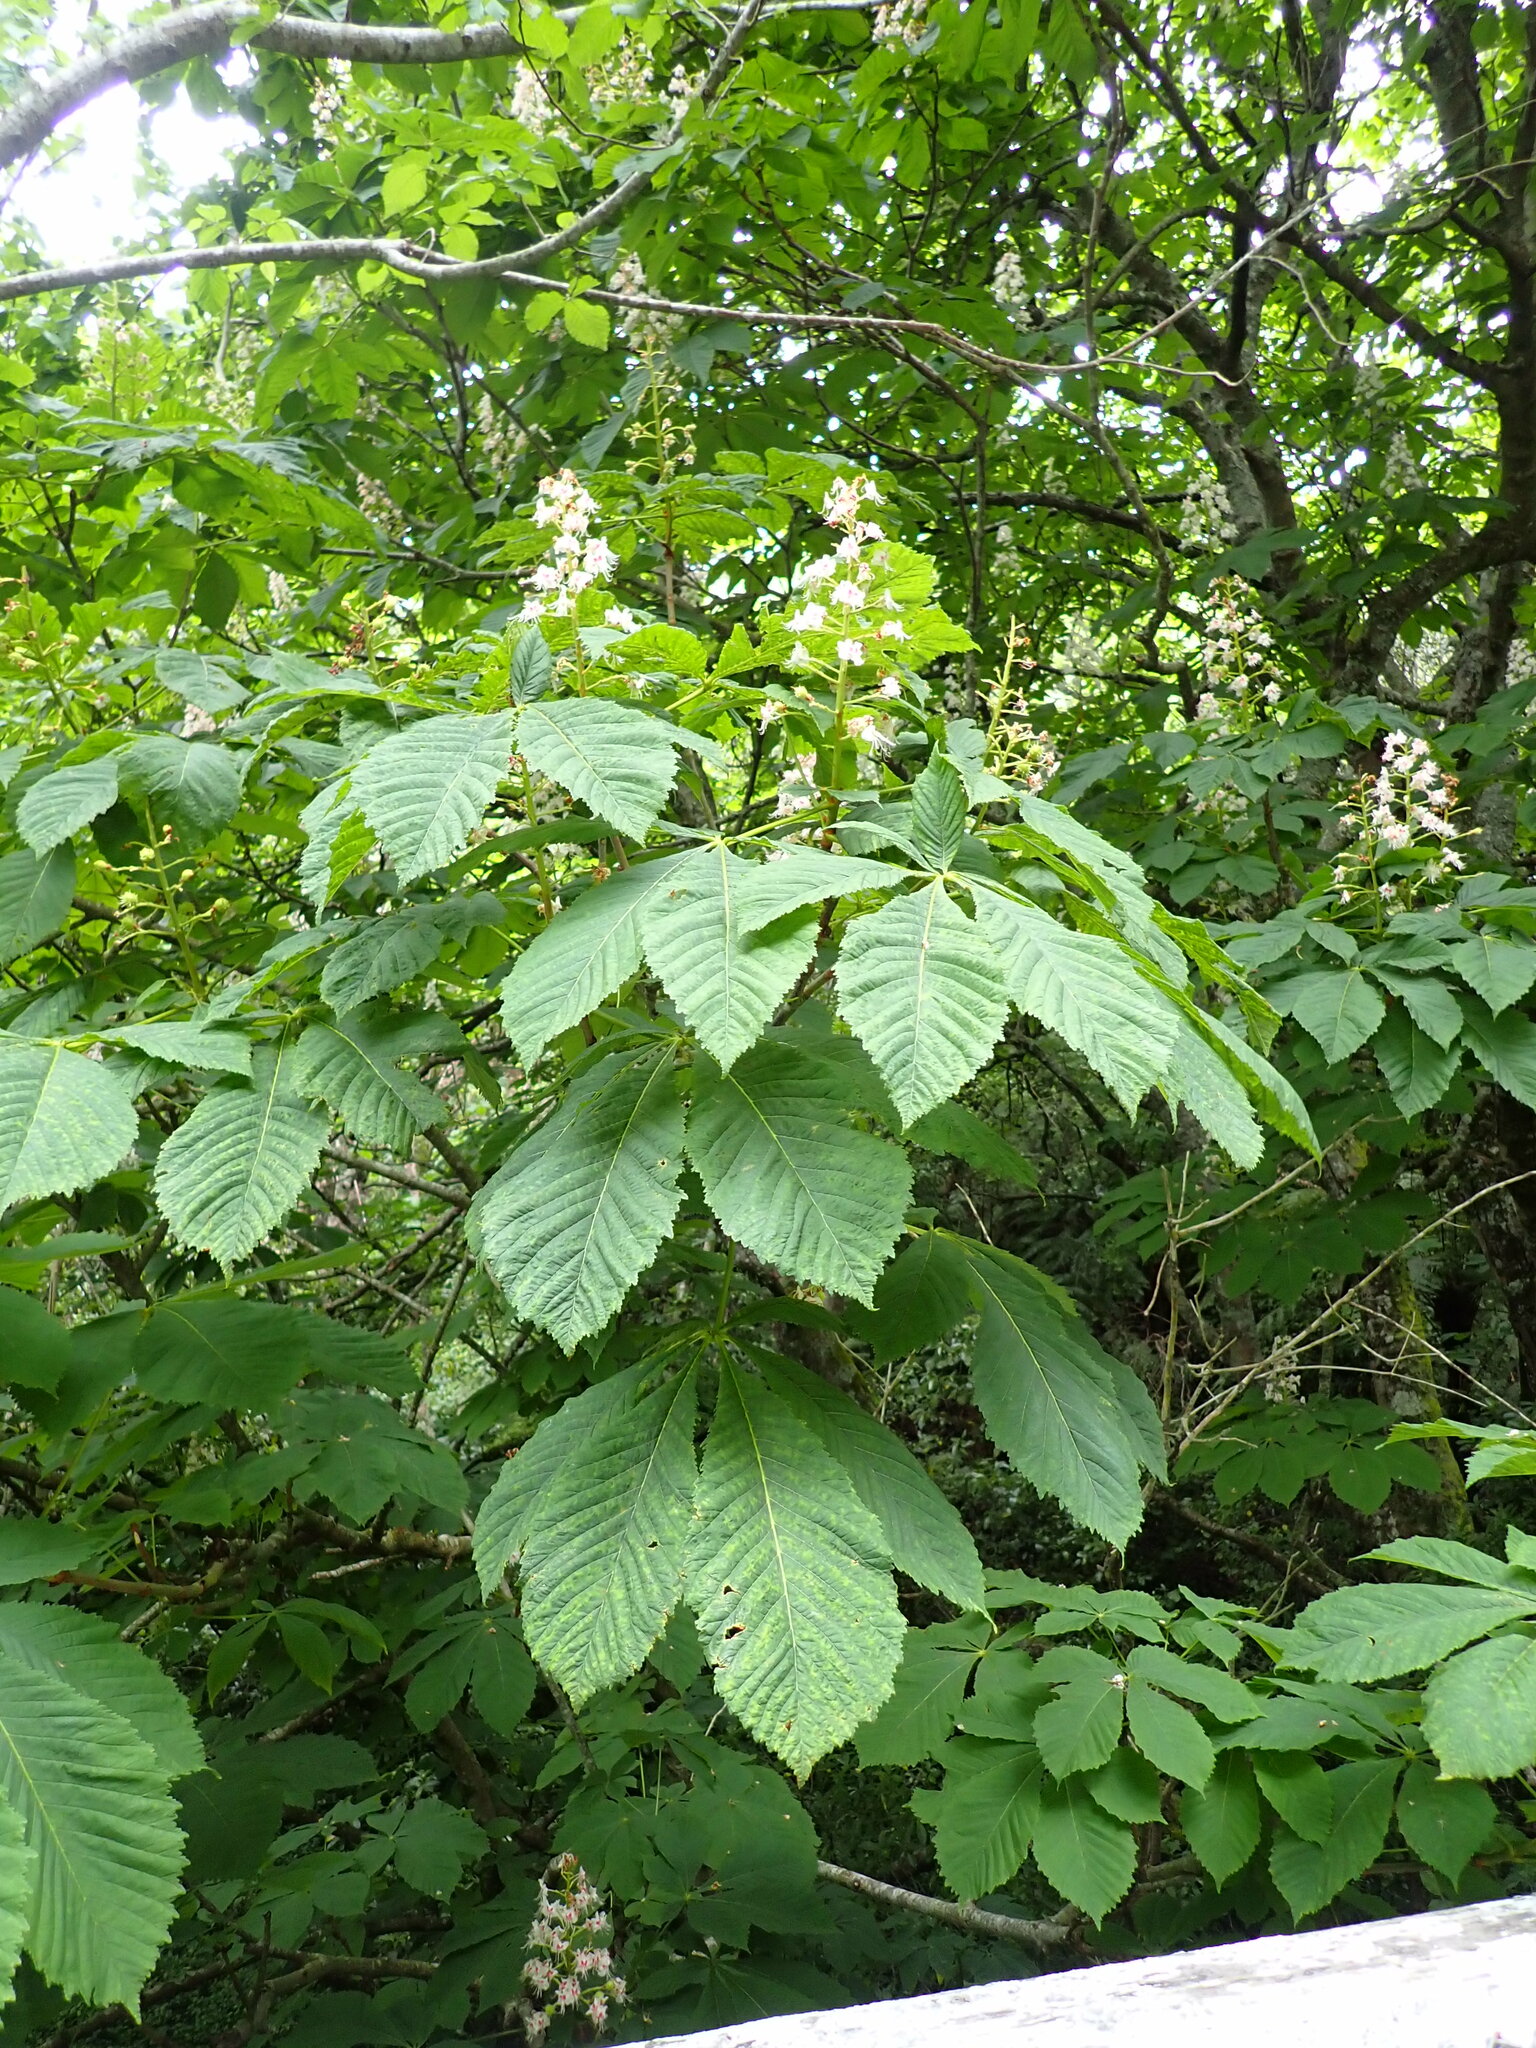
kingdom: Plantae
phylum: Tracheophyta
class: Magnoliopsida
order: Sapindales
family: Sapindaceae
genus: Aesculus
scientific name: Aesculus hippocastanum
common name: Horse-chestnut
